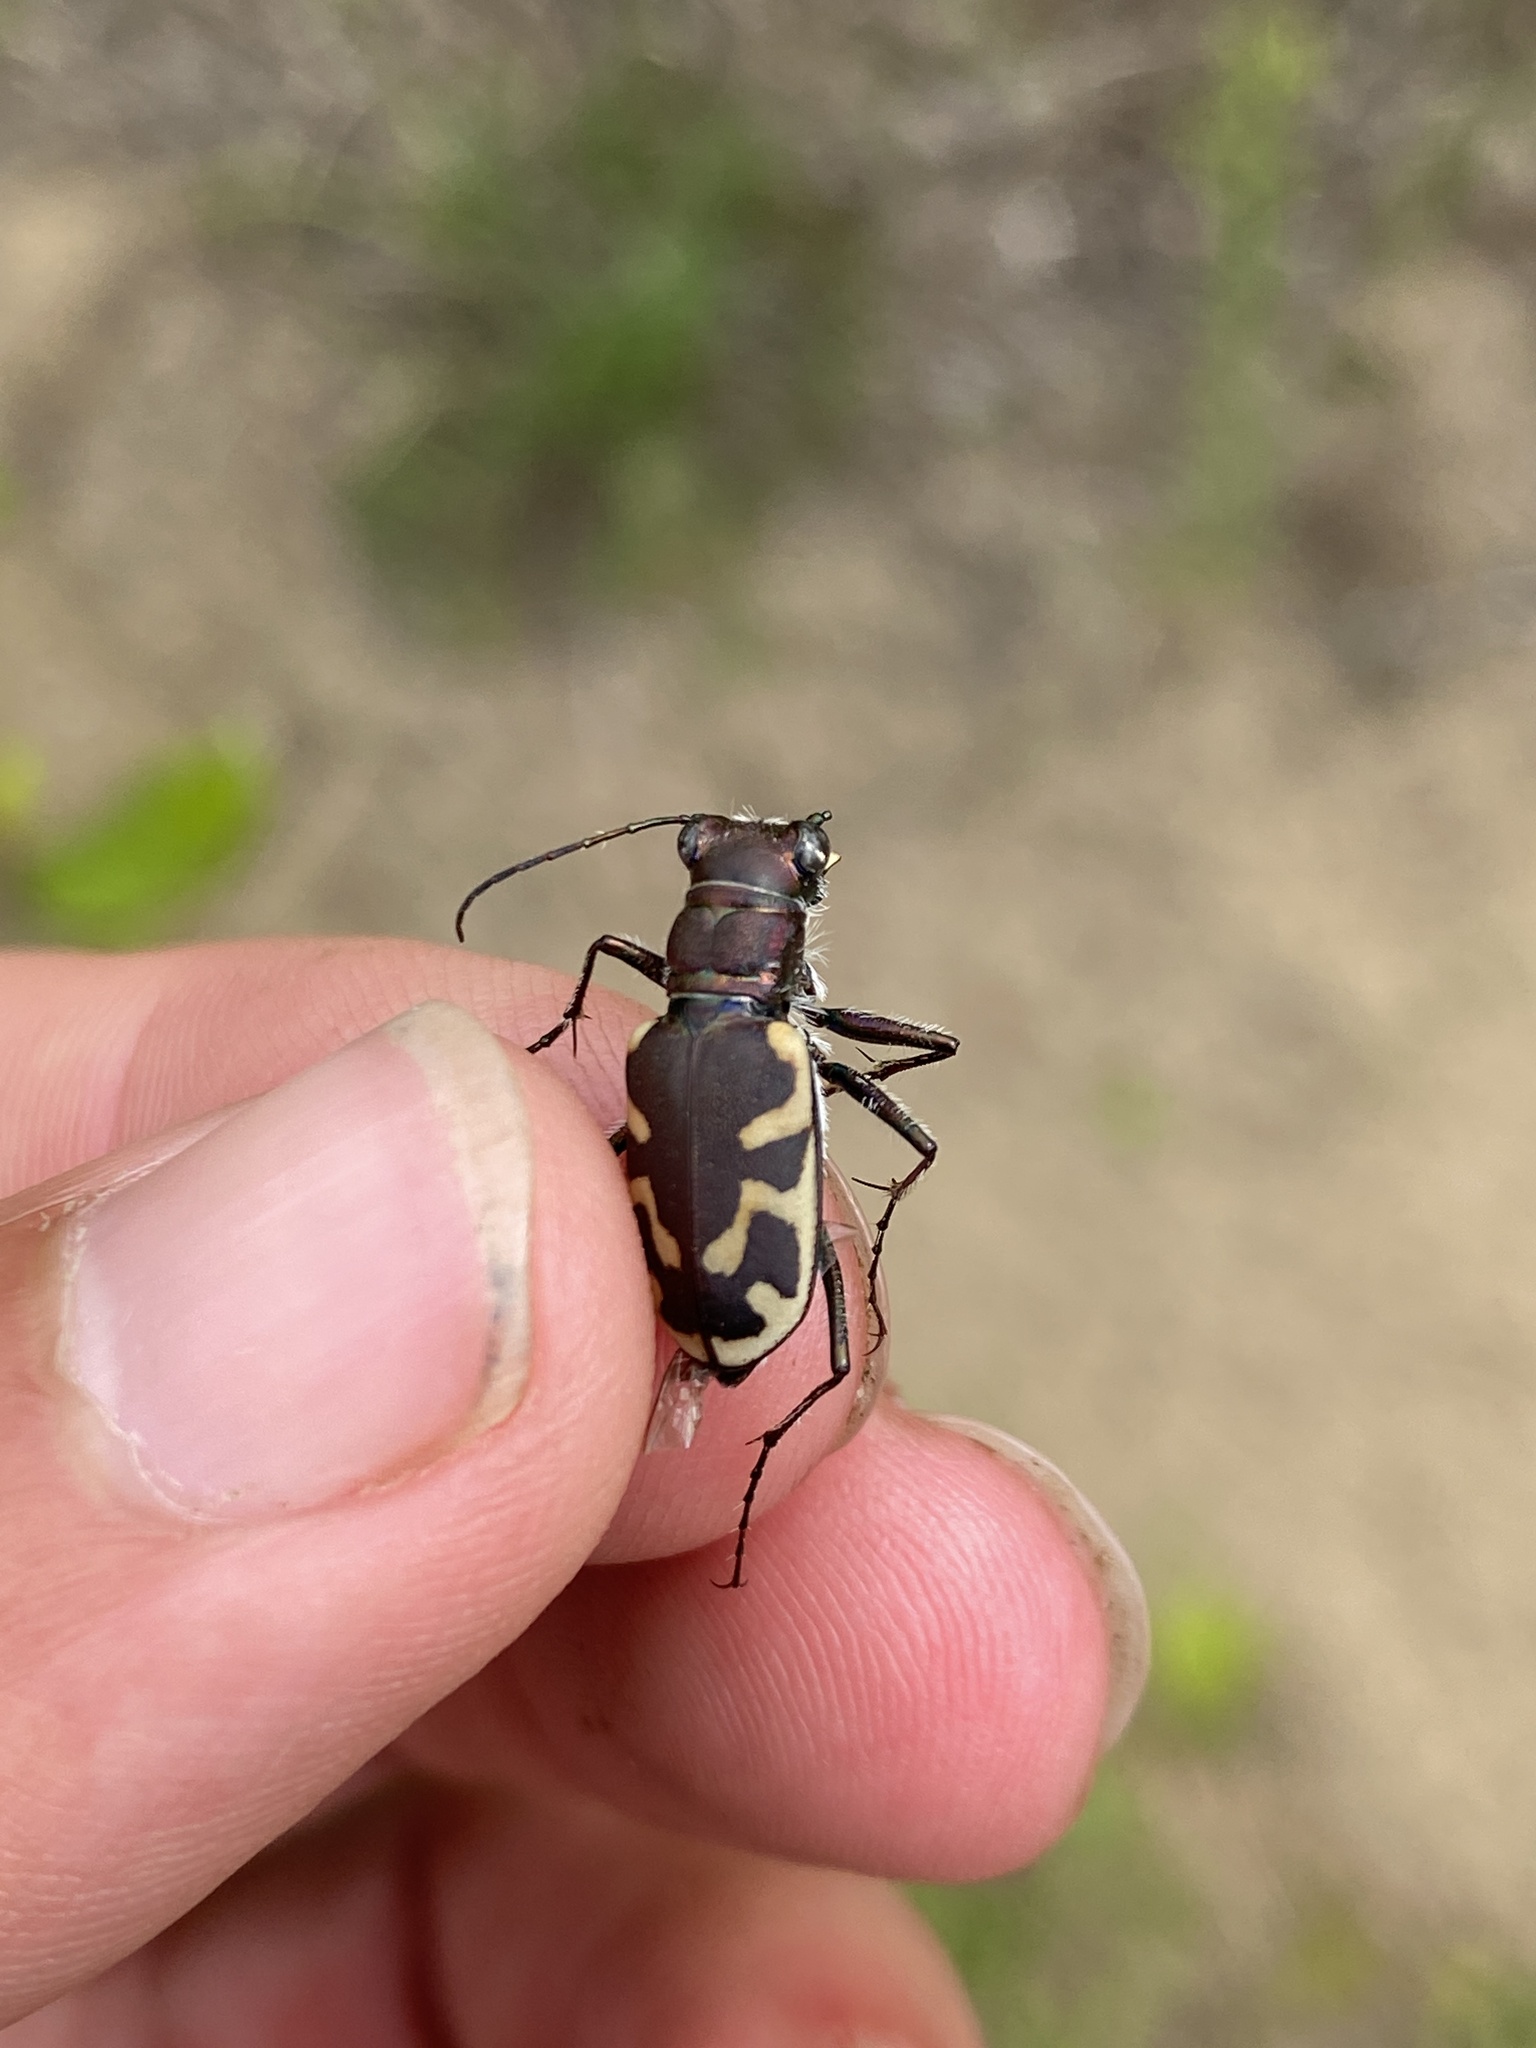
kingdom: Animalia
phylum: Arthropoda
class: Insecta
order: Coleoptera
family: Carabidae
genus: Cicindela
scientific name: Cicindela formosa
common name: Big sand tiger beetle
